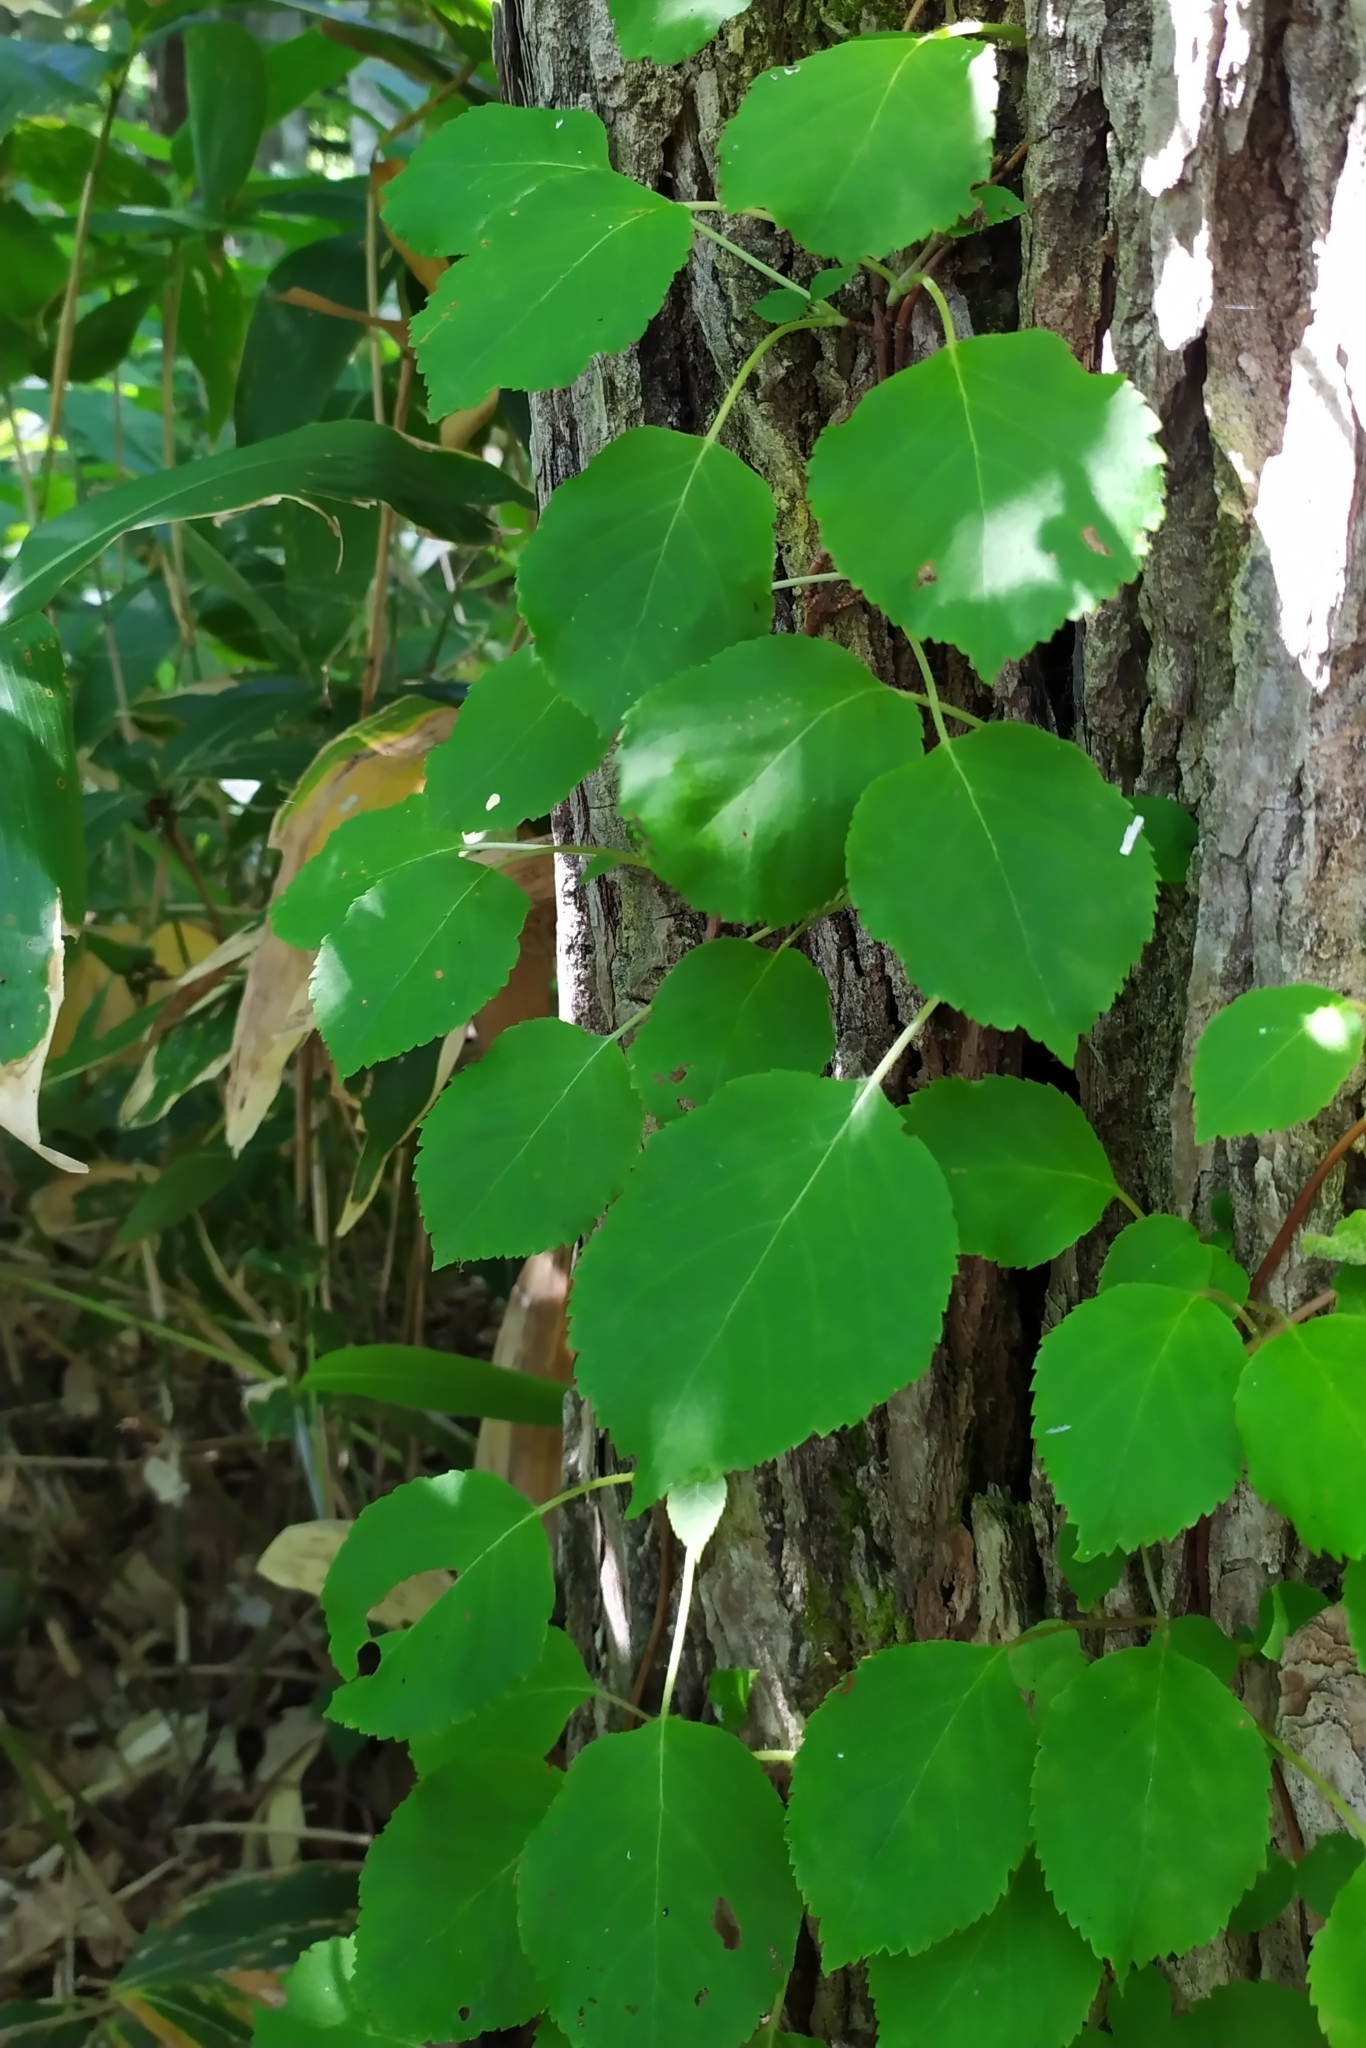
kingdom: Plantae
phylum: Tracheophyta
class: Magnoliopsida
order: Cornales
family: Hydrangeaceae
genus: Hydrangea
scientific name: Hydrangea petiolaris
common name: Japanese climbing hydrangea
